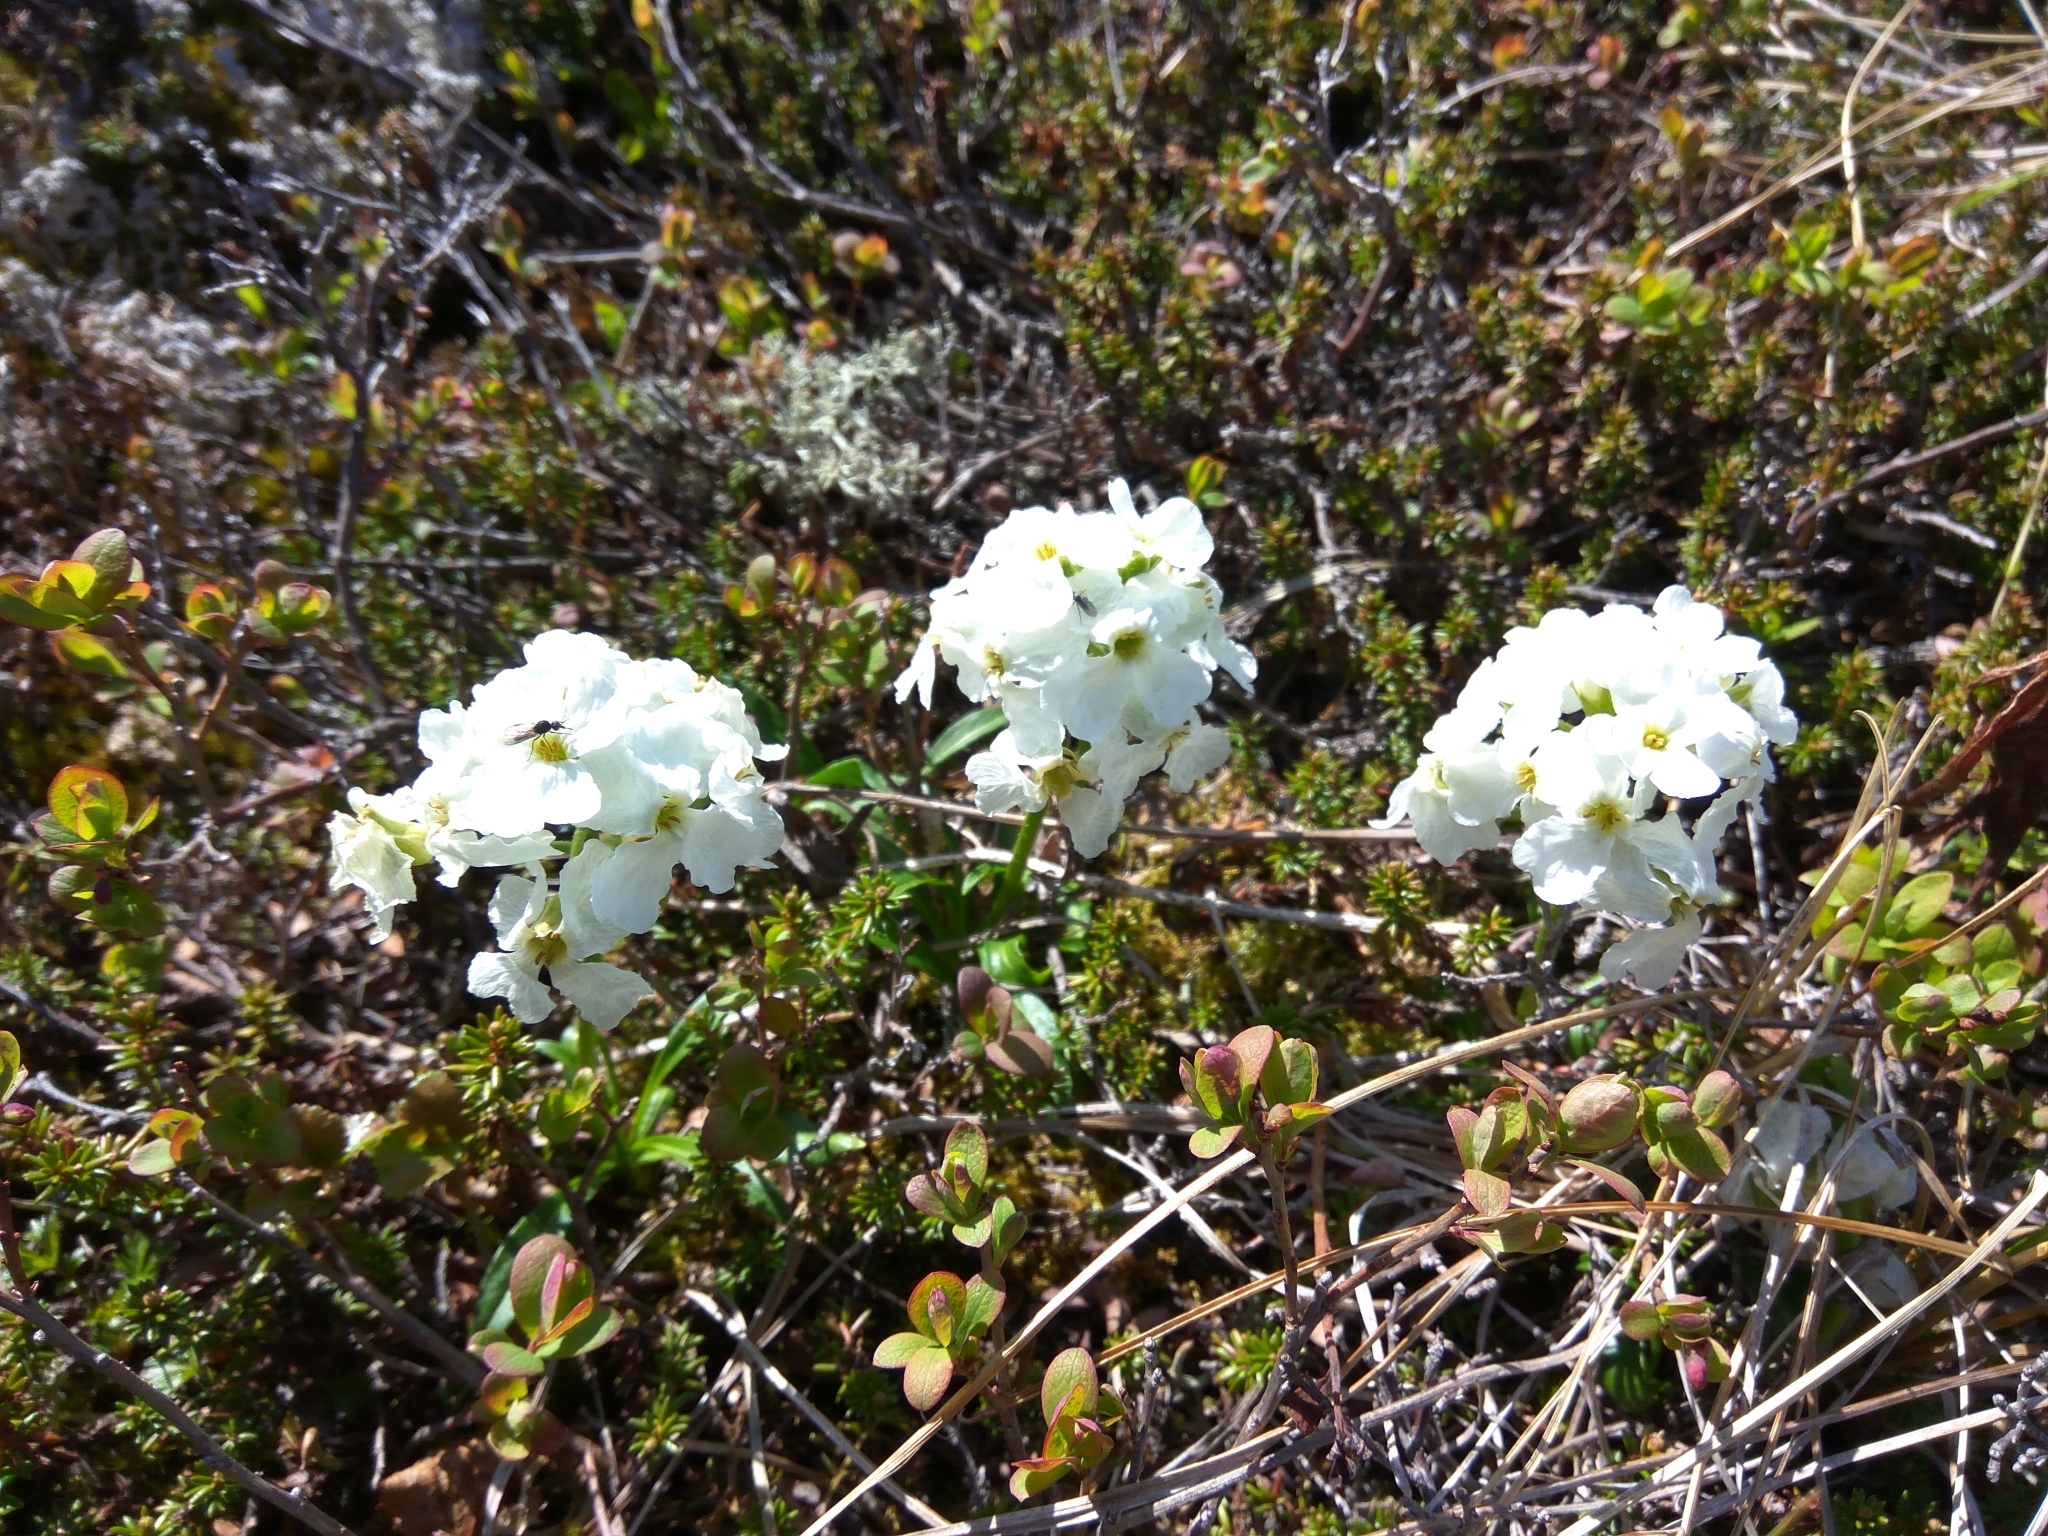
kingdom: Plantae
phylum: Tracheophyta
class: Magnoliopsida
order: Brassicales
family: Brassicaceae
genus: Parrya
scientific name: Parrya nudicaulis
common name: Naked-stemmed false wallflower
